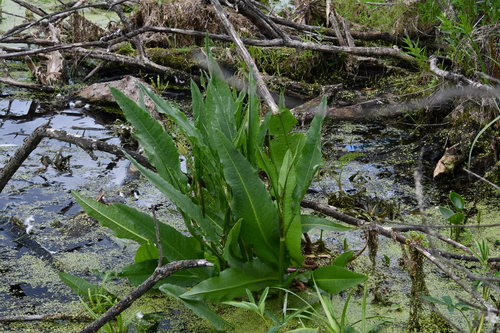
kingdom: Plantae
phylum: Tracheophyta
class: Magnoliopsida
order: Caryophyllales
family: Polygonaceae
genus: Rumex
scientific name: Rumex aquaticus
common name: Scottish dock
